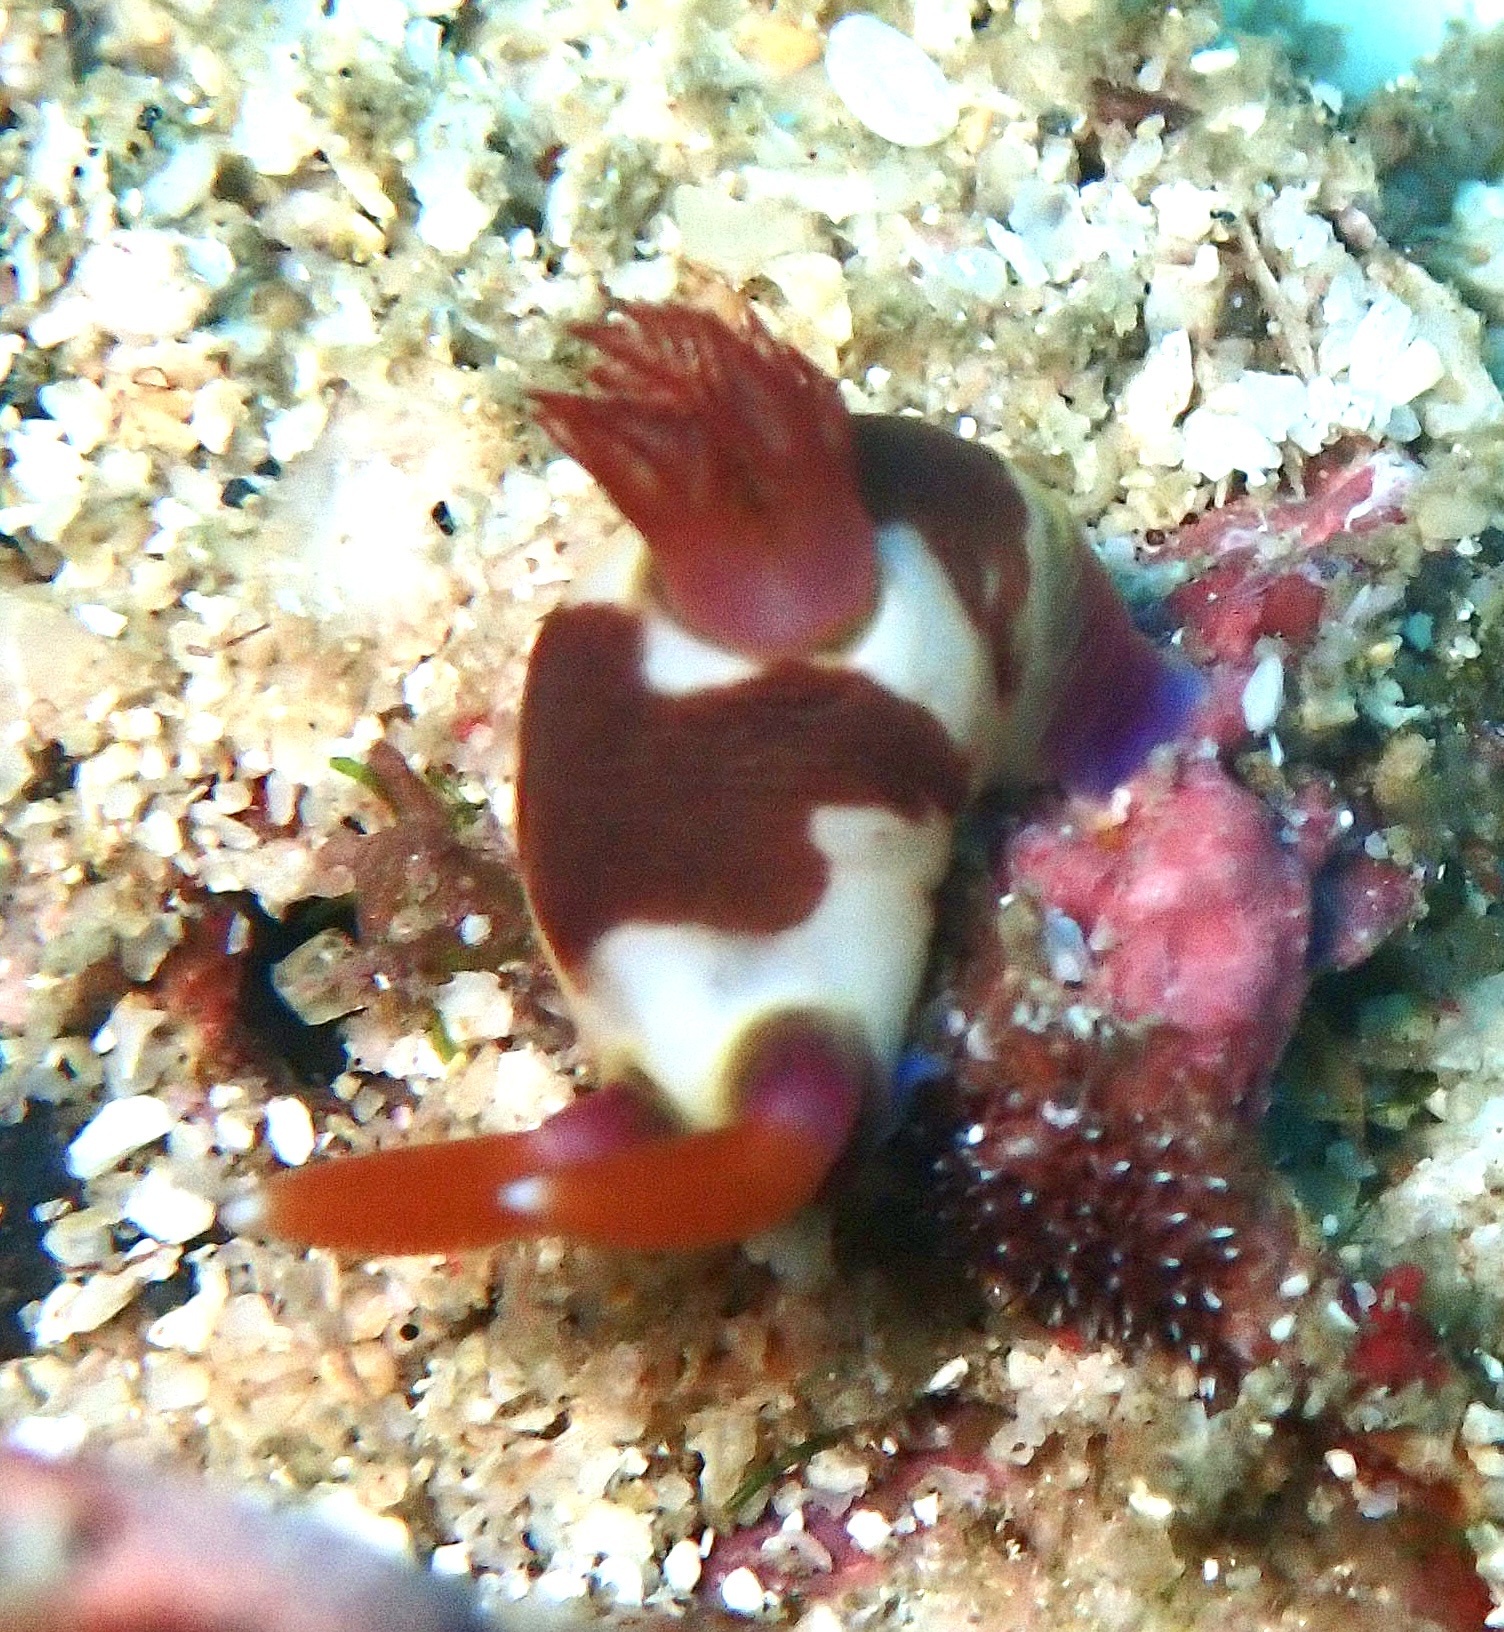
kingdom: Animalia
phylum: Mollusca
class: Gastropoda
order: Nudibranchia
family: Polyceridae
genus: Nembrotha
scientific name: Nembrotha chamberlaini
